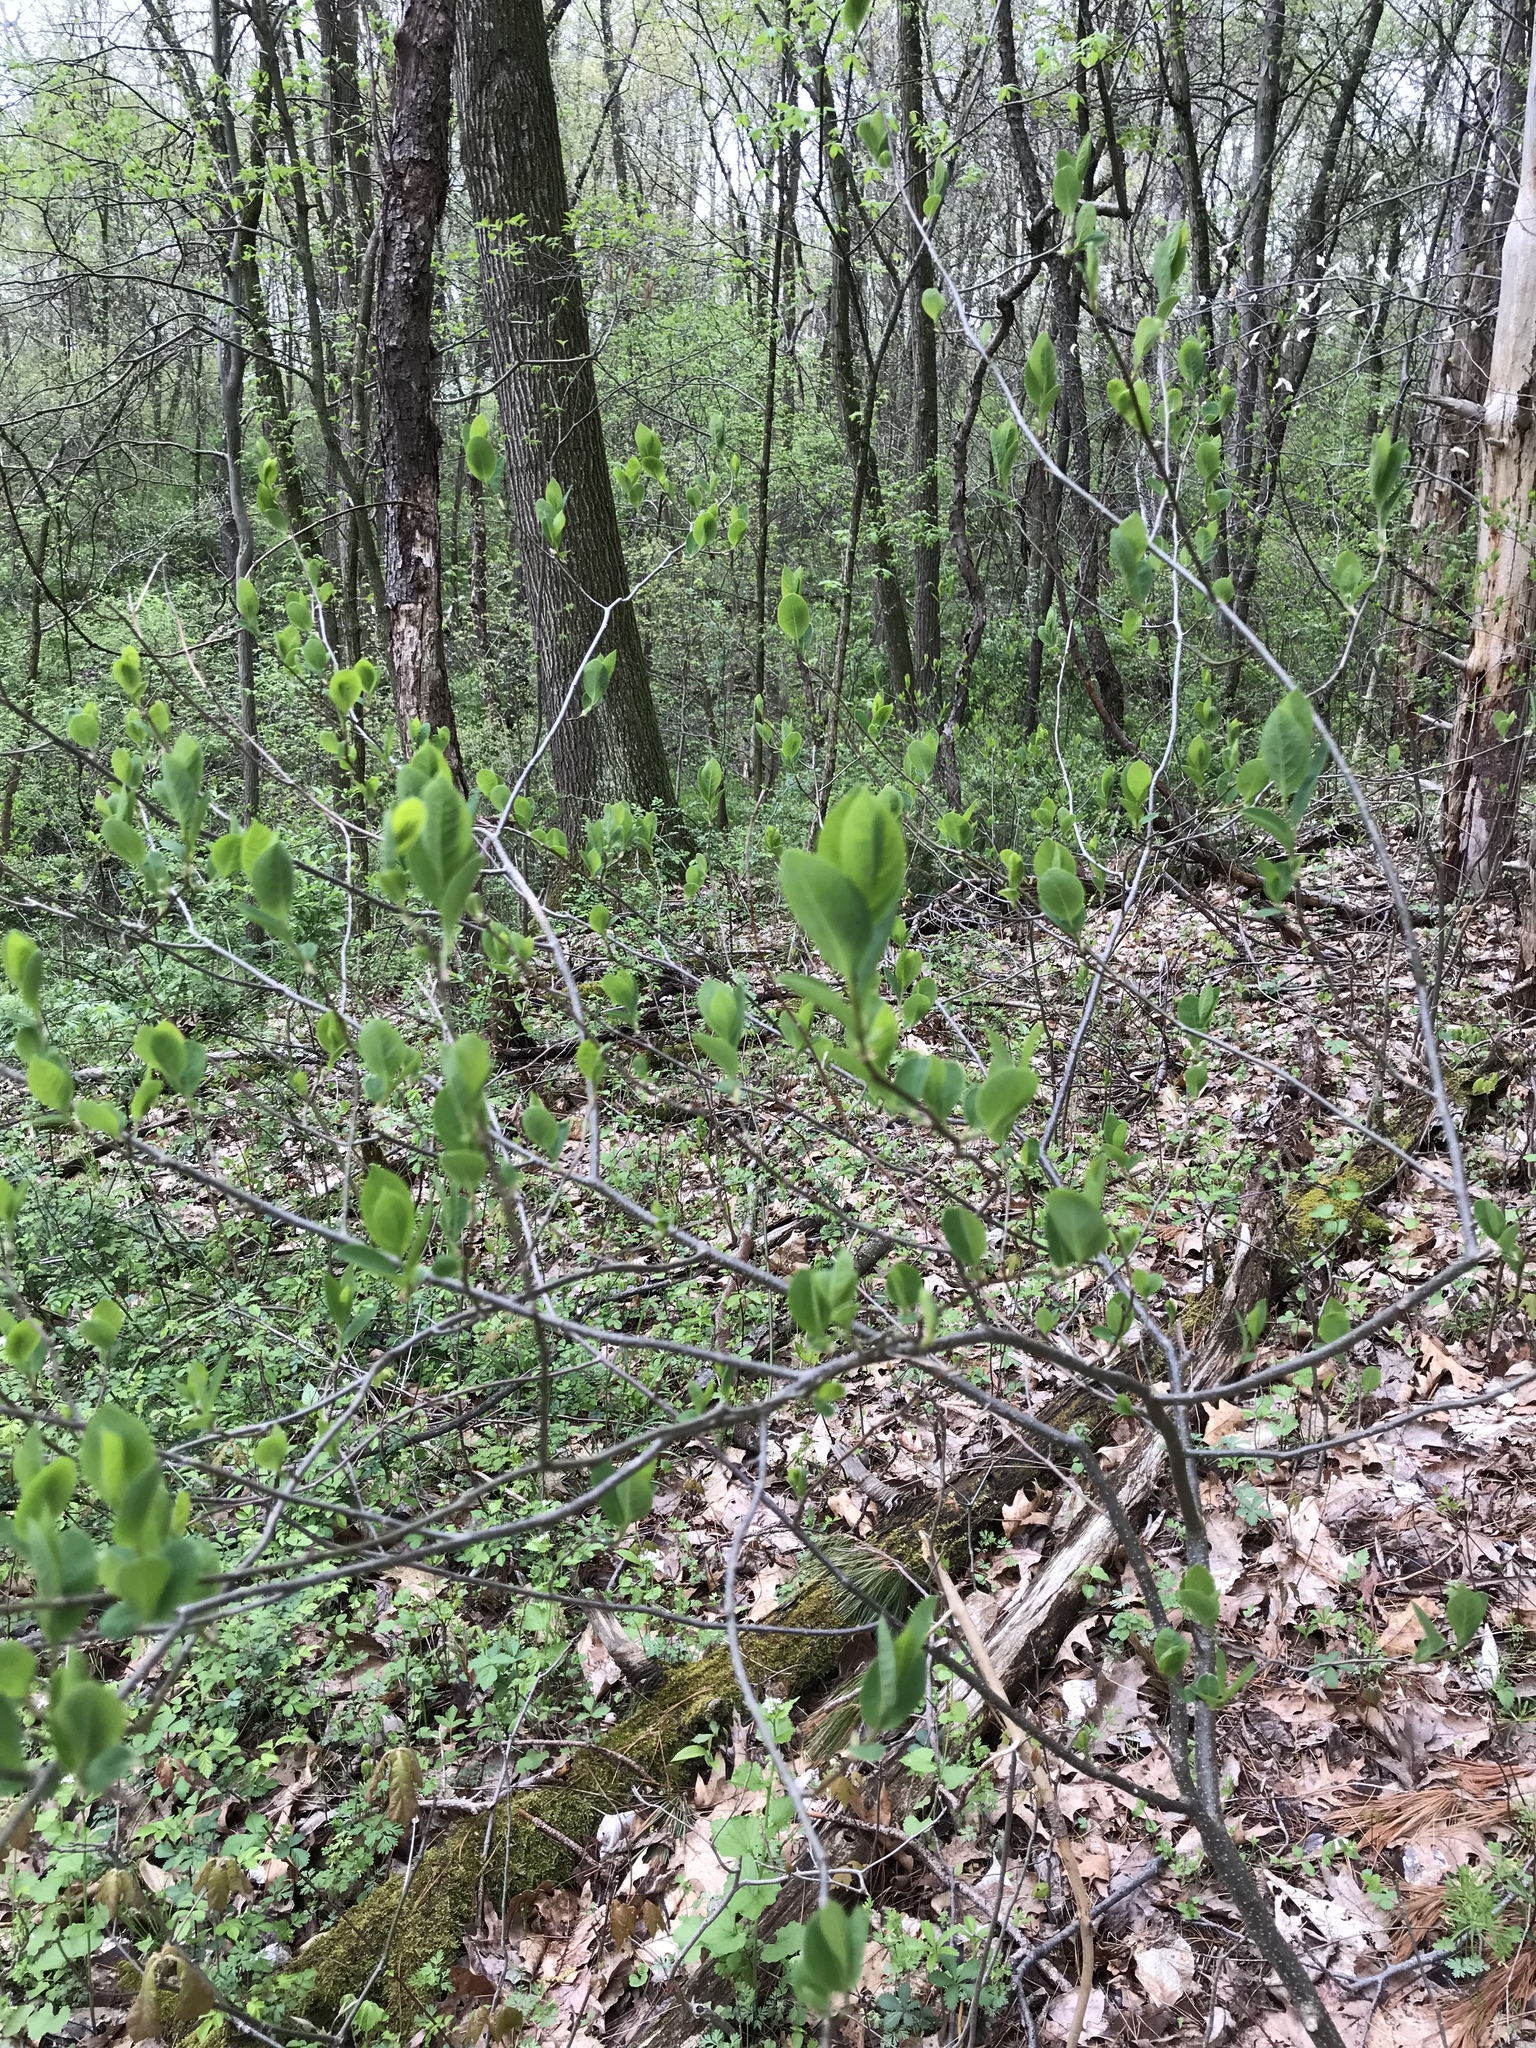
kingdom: Plantae
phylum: Tracheophyta
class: Magnoliopsida
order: Laurales
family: Lauraceae
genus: Lindera
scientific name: Lindera benzoin
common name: Spicebush
